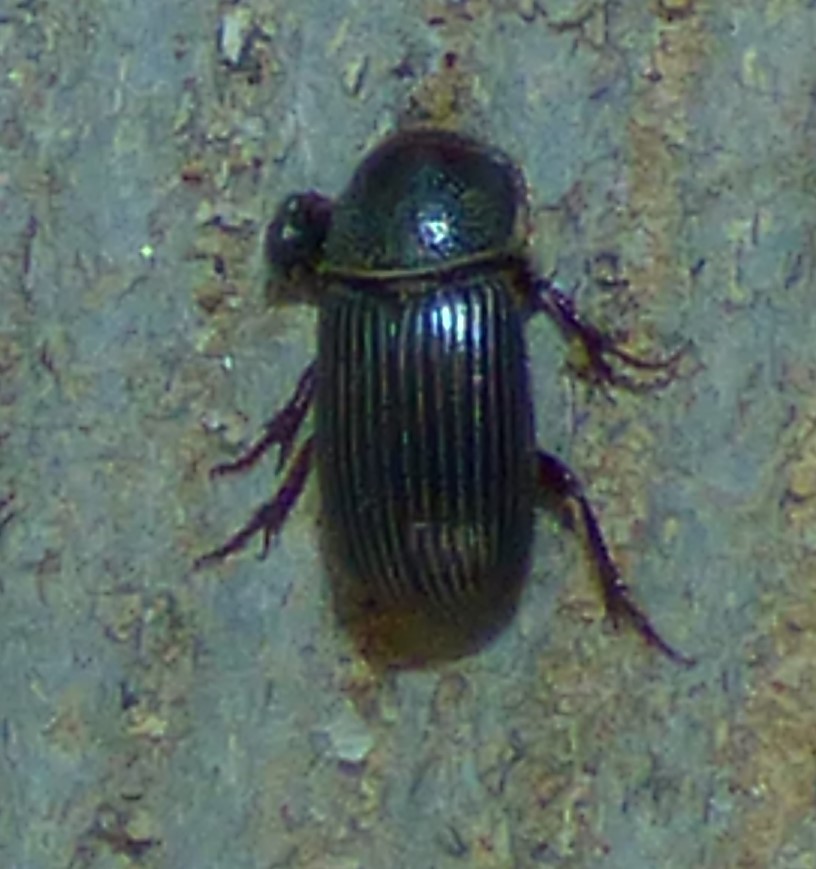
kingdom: Animalia
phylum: Arthropoda
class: Insecta
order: Coleoptera
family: Scarabaeidae
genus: Martineziana
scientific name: Martineziana dutertrei
